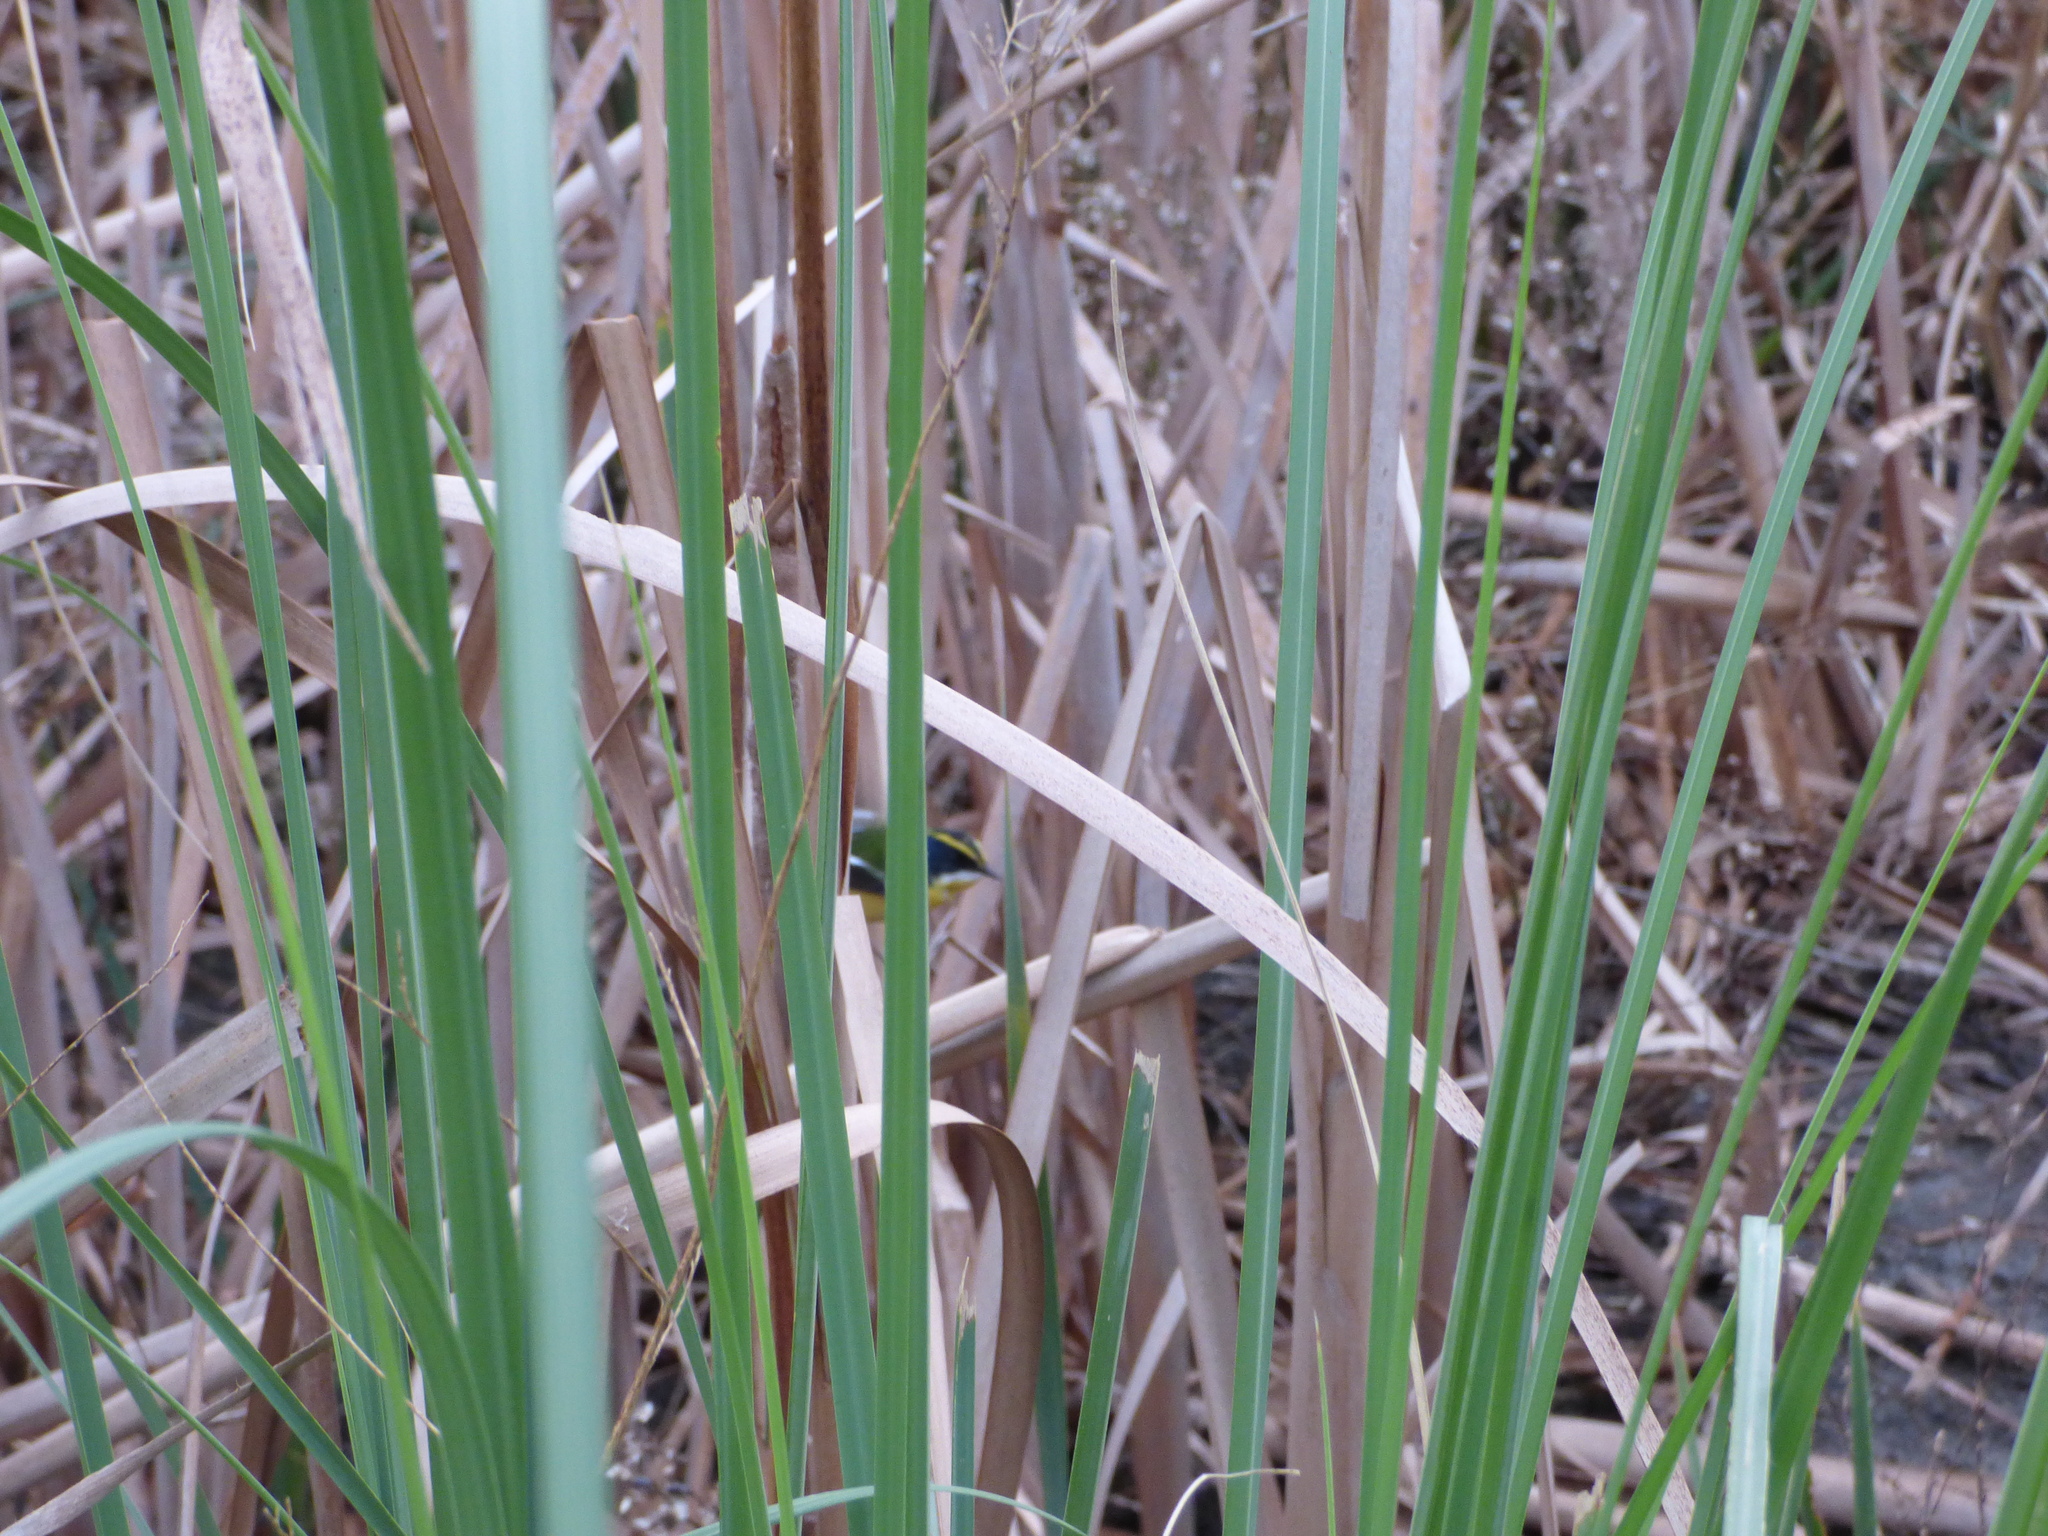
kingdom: Animalia
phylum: Chordata
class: Aves
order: Passeriformes
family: Tyrannidae
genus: Tachuris
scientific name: Tachuris rubrigastra
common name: Many-colored rush tyrant
